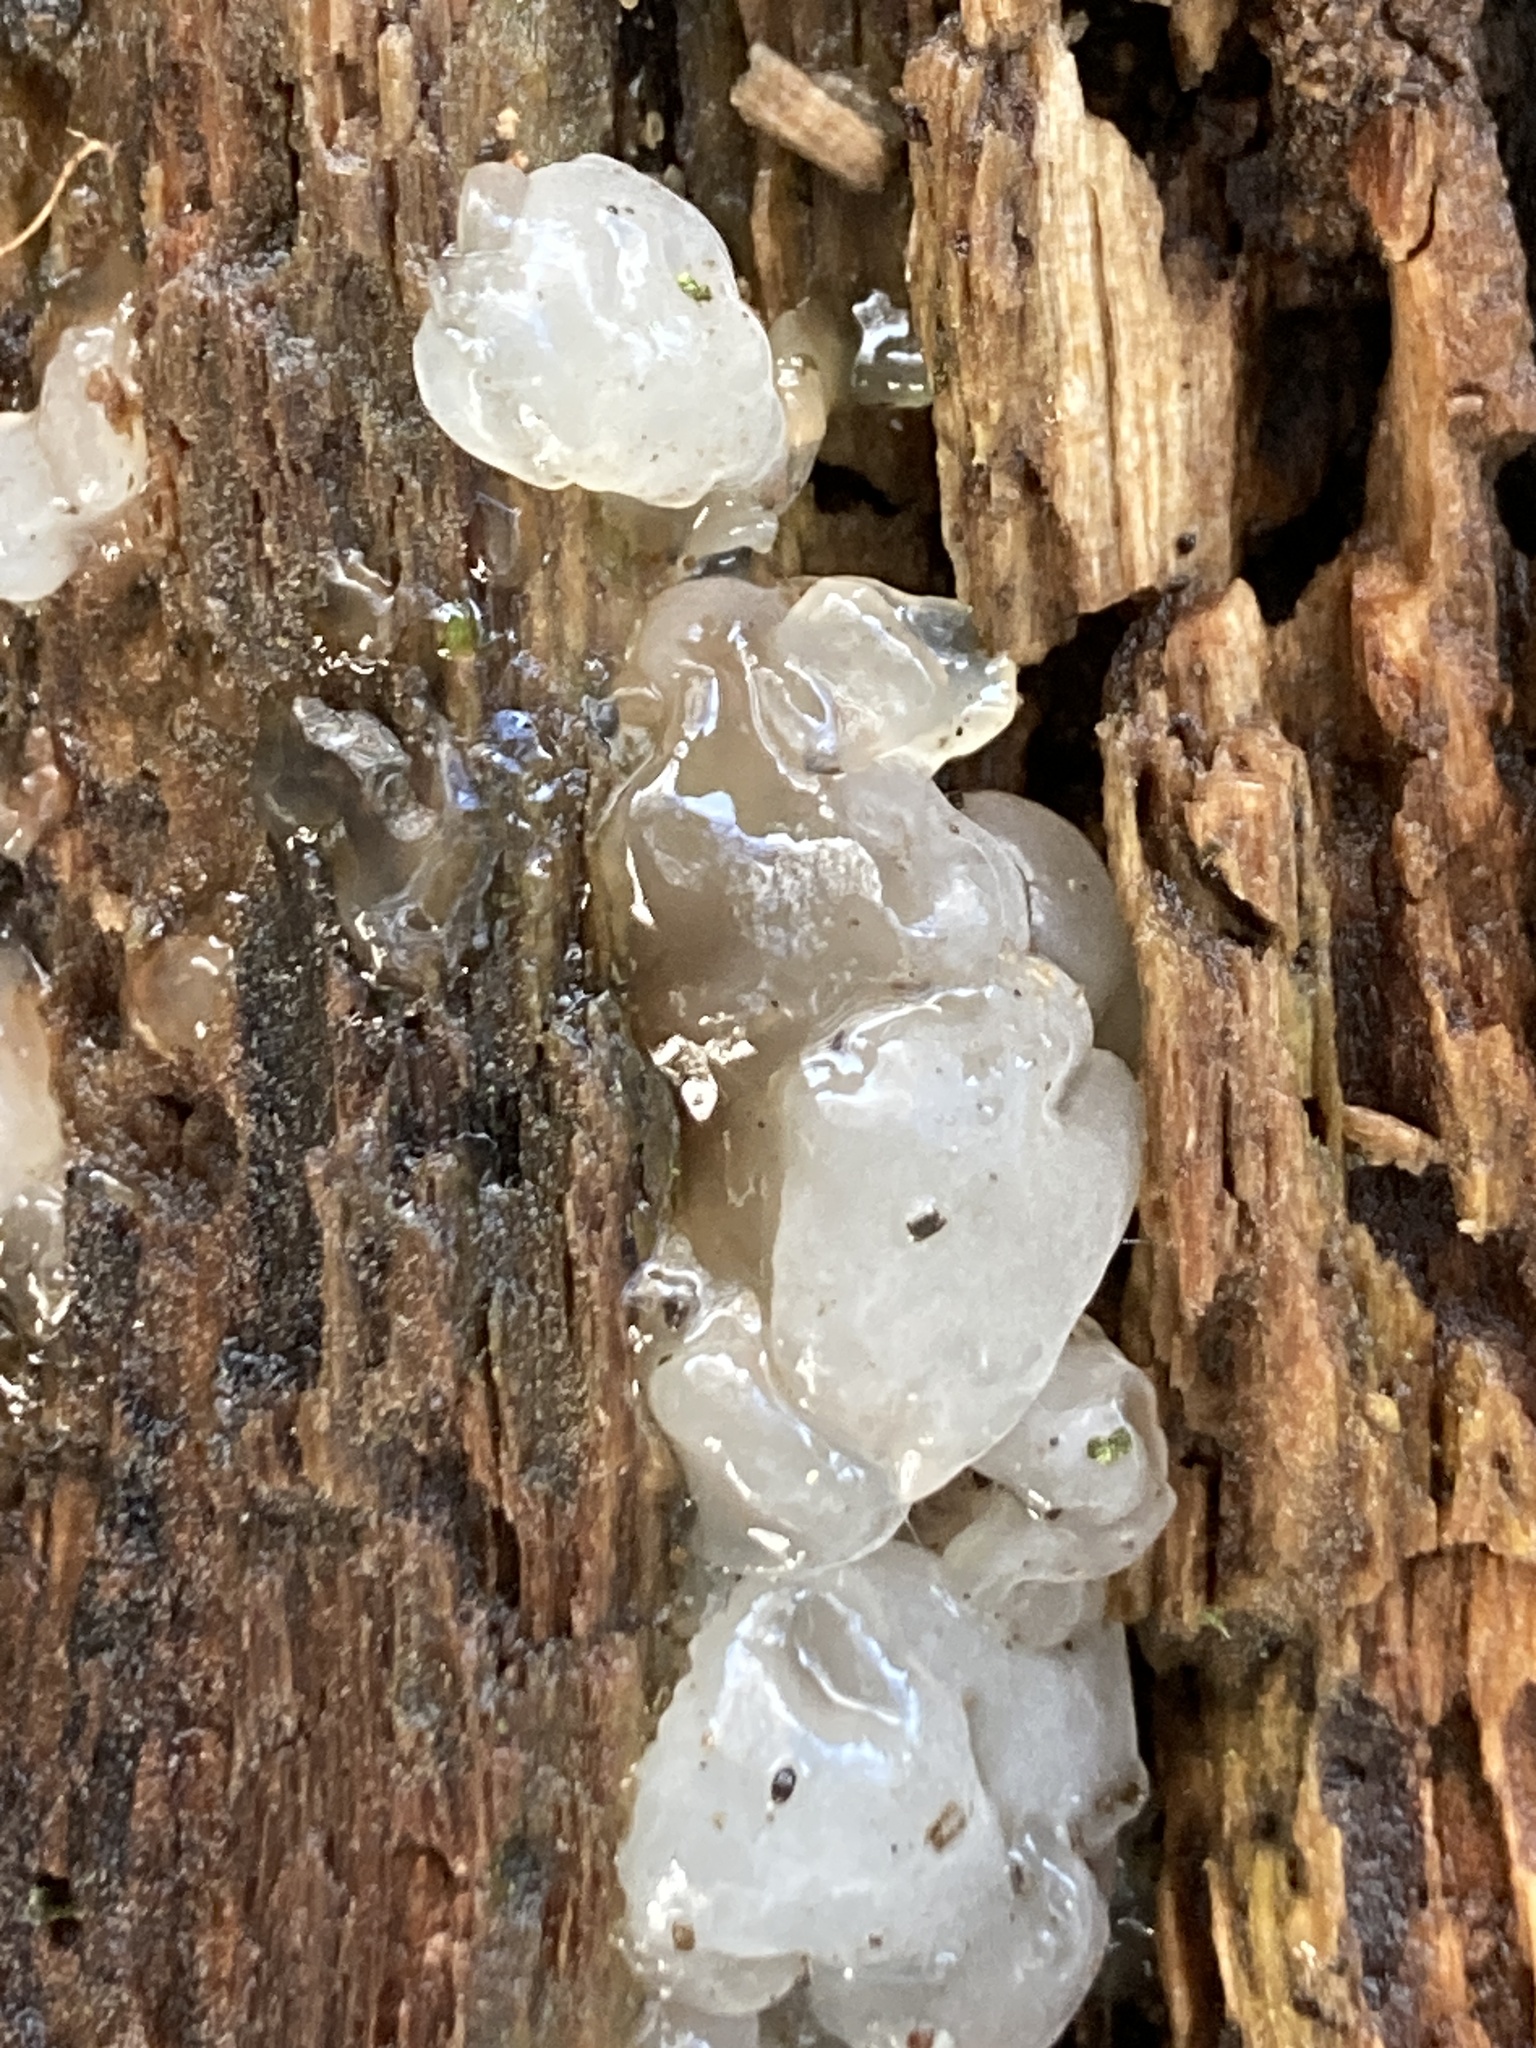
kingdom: Fungi
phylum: Basidiomycota
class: Agaricomycetes
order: Auriculariales
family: Hyaloriaceae
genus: Myxarium
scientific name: Myxarium nucleatum
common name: Crystal brain fungus
